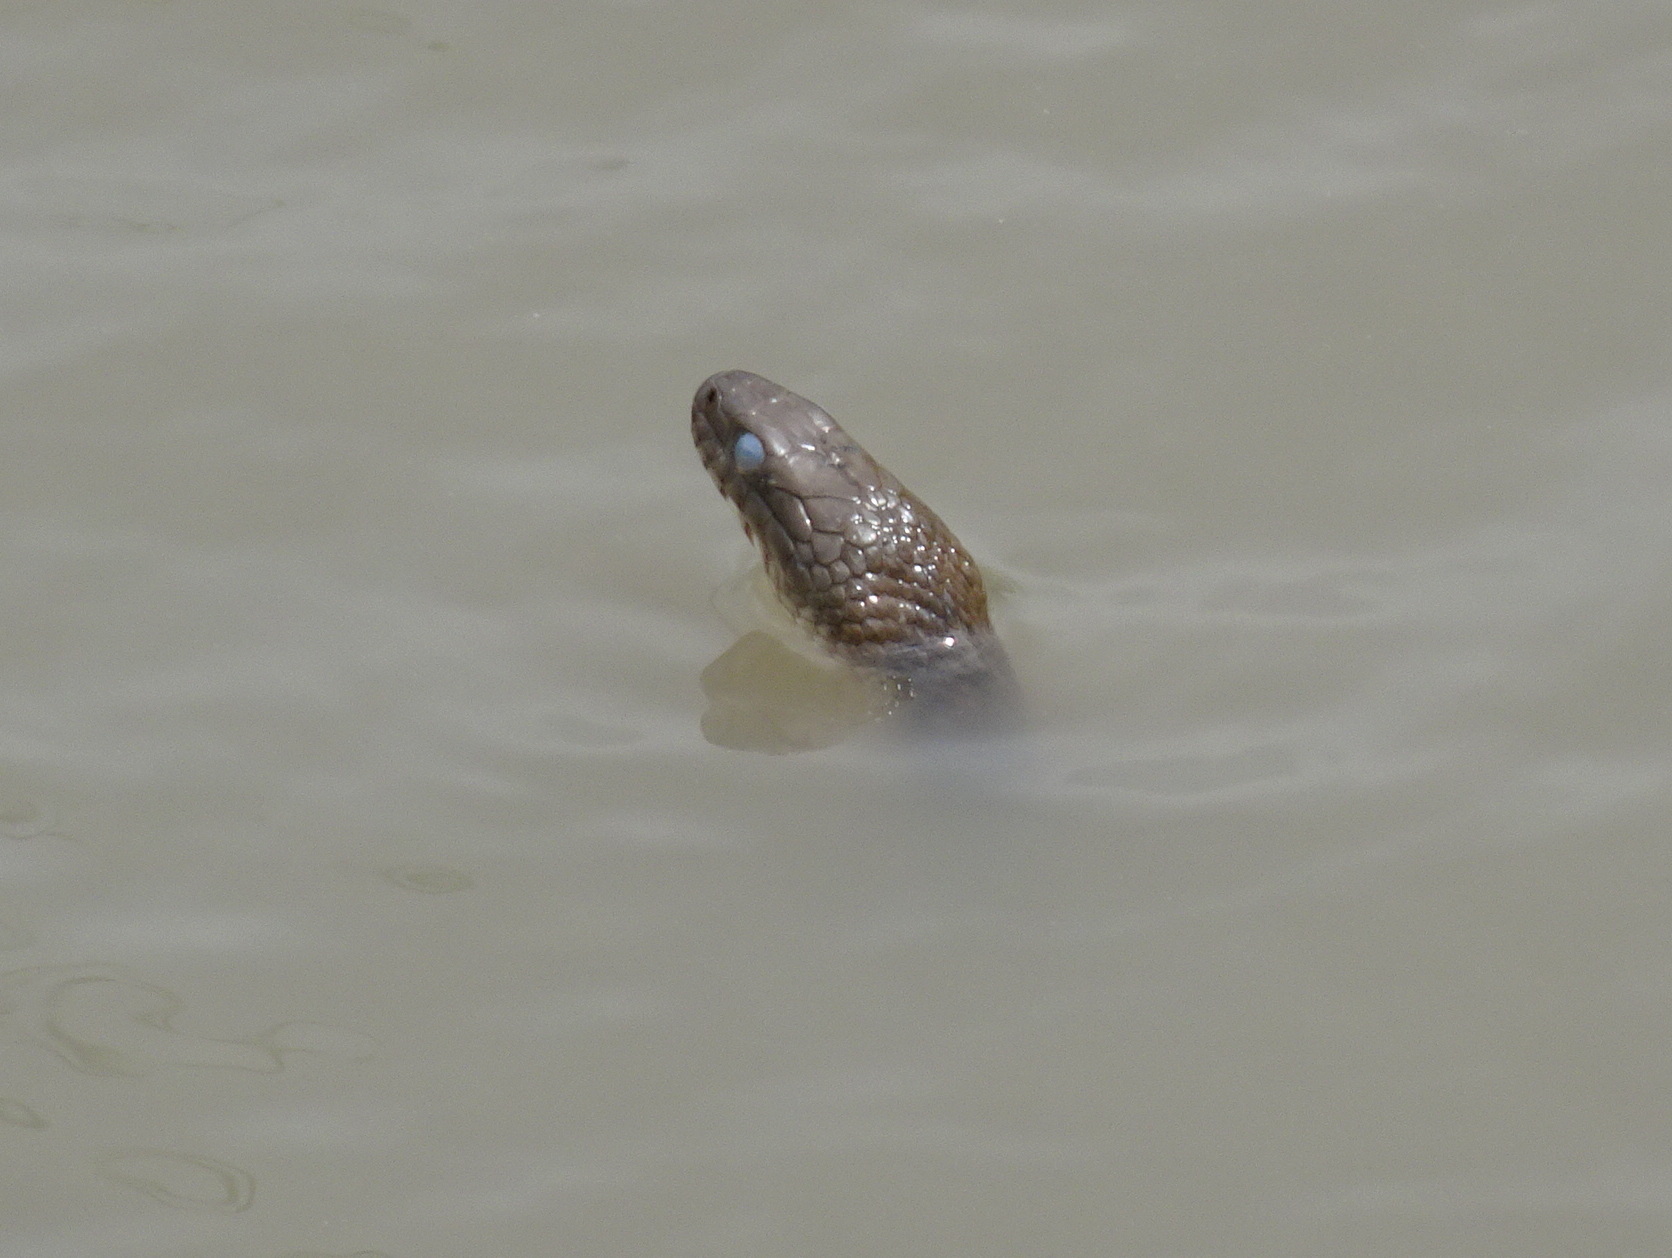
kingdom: Animalia
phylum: Chordata
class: Squamata
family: Colubridae
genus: Nerodia
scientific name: Nerodia sipedon
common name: Northern water snake
